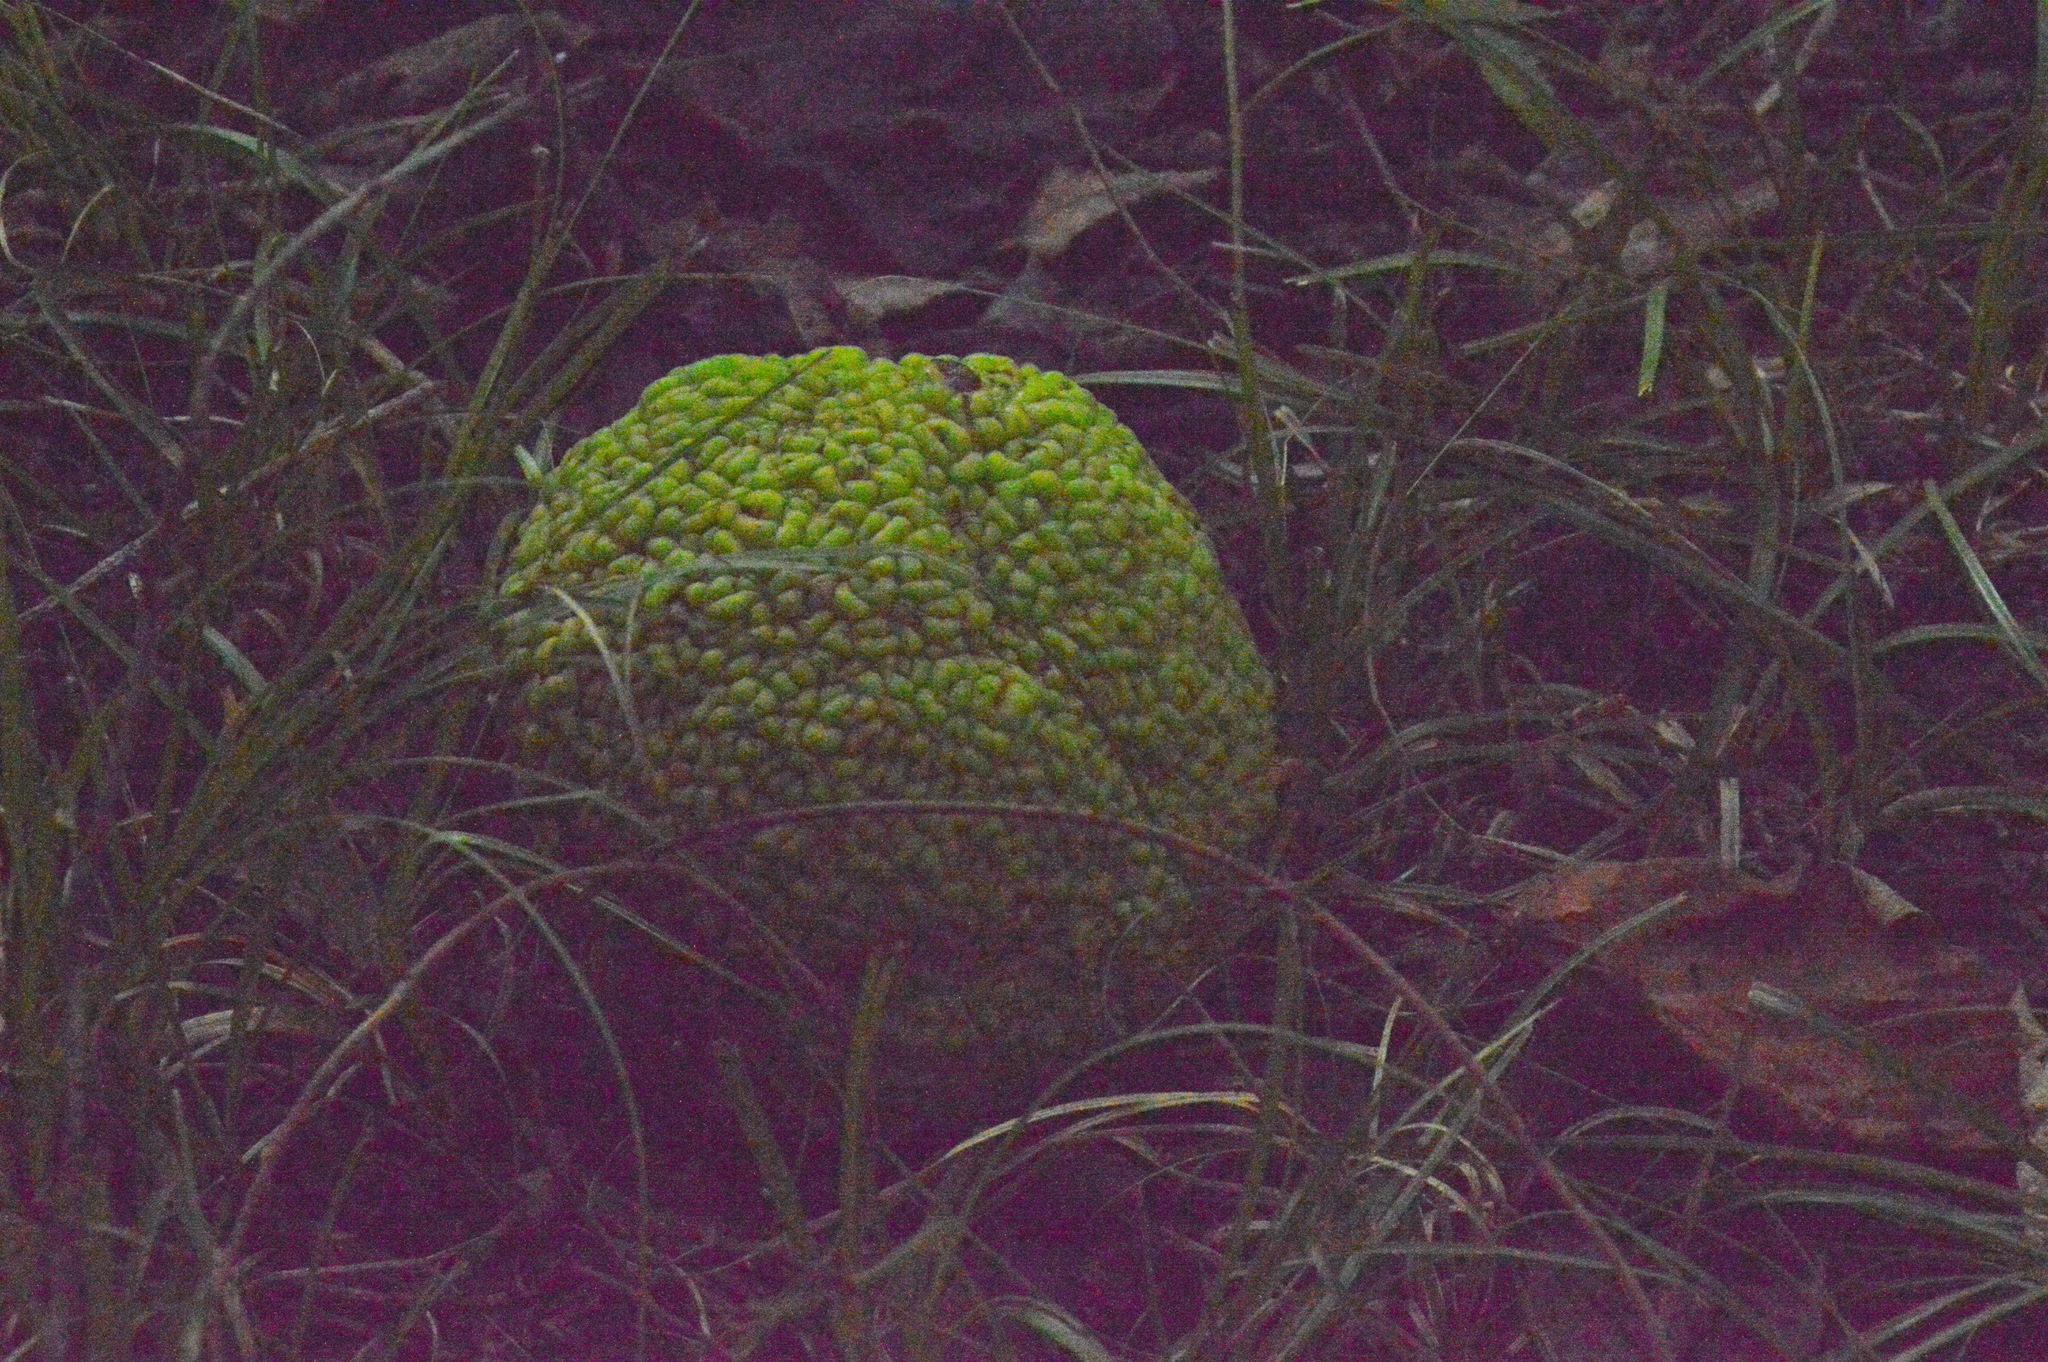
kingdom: Plantae
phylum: Tracheophyta
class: Magnoliopsida
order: Rosales
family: Moraceae
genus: Maclura
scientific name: Maclura pomifera
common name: Osage-orange
